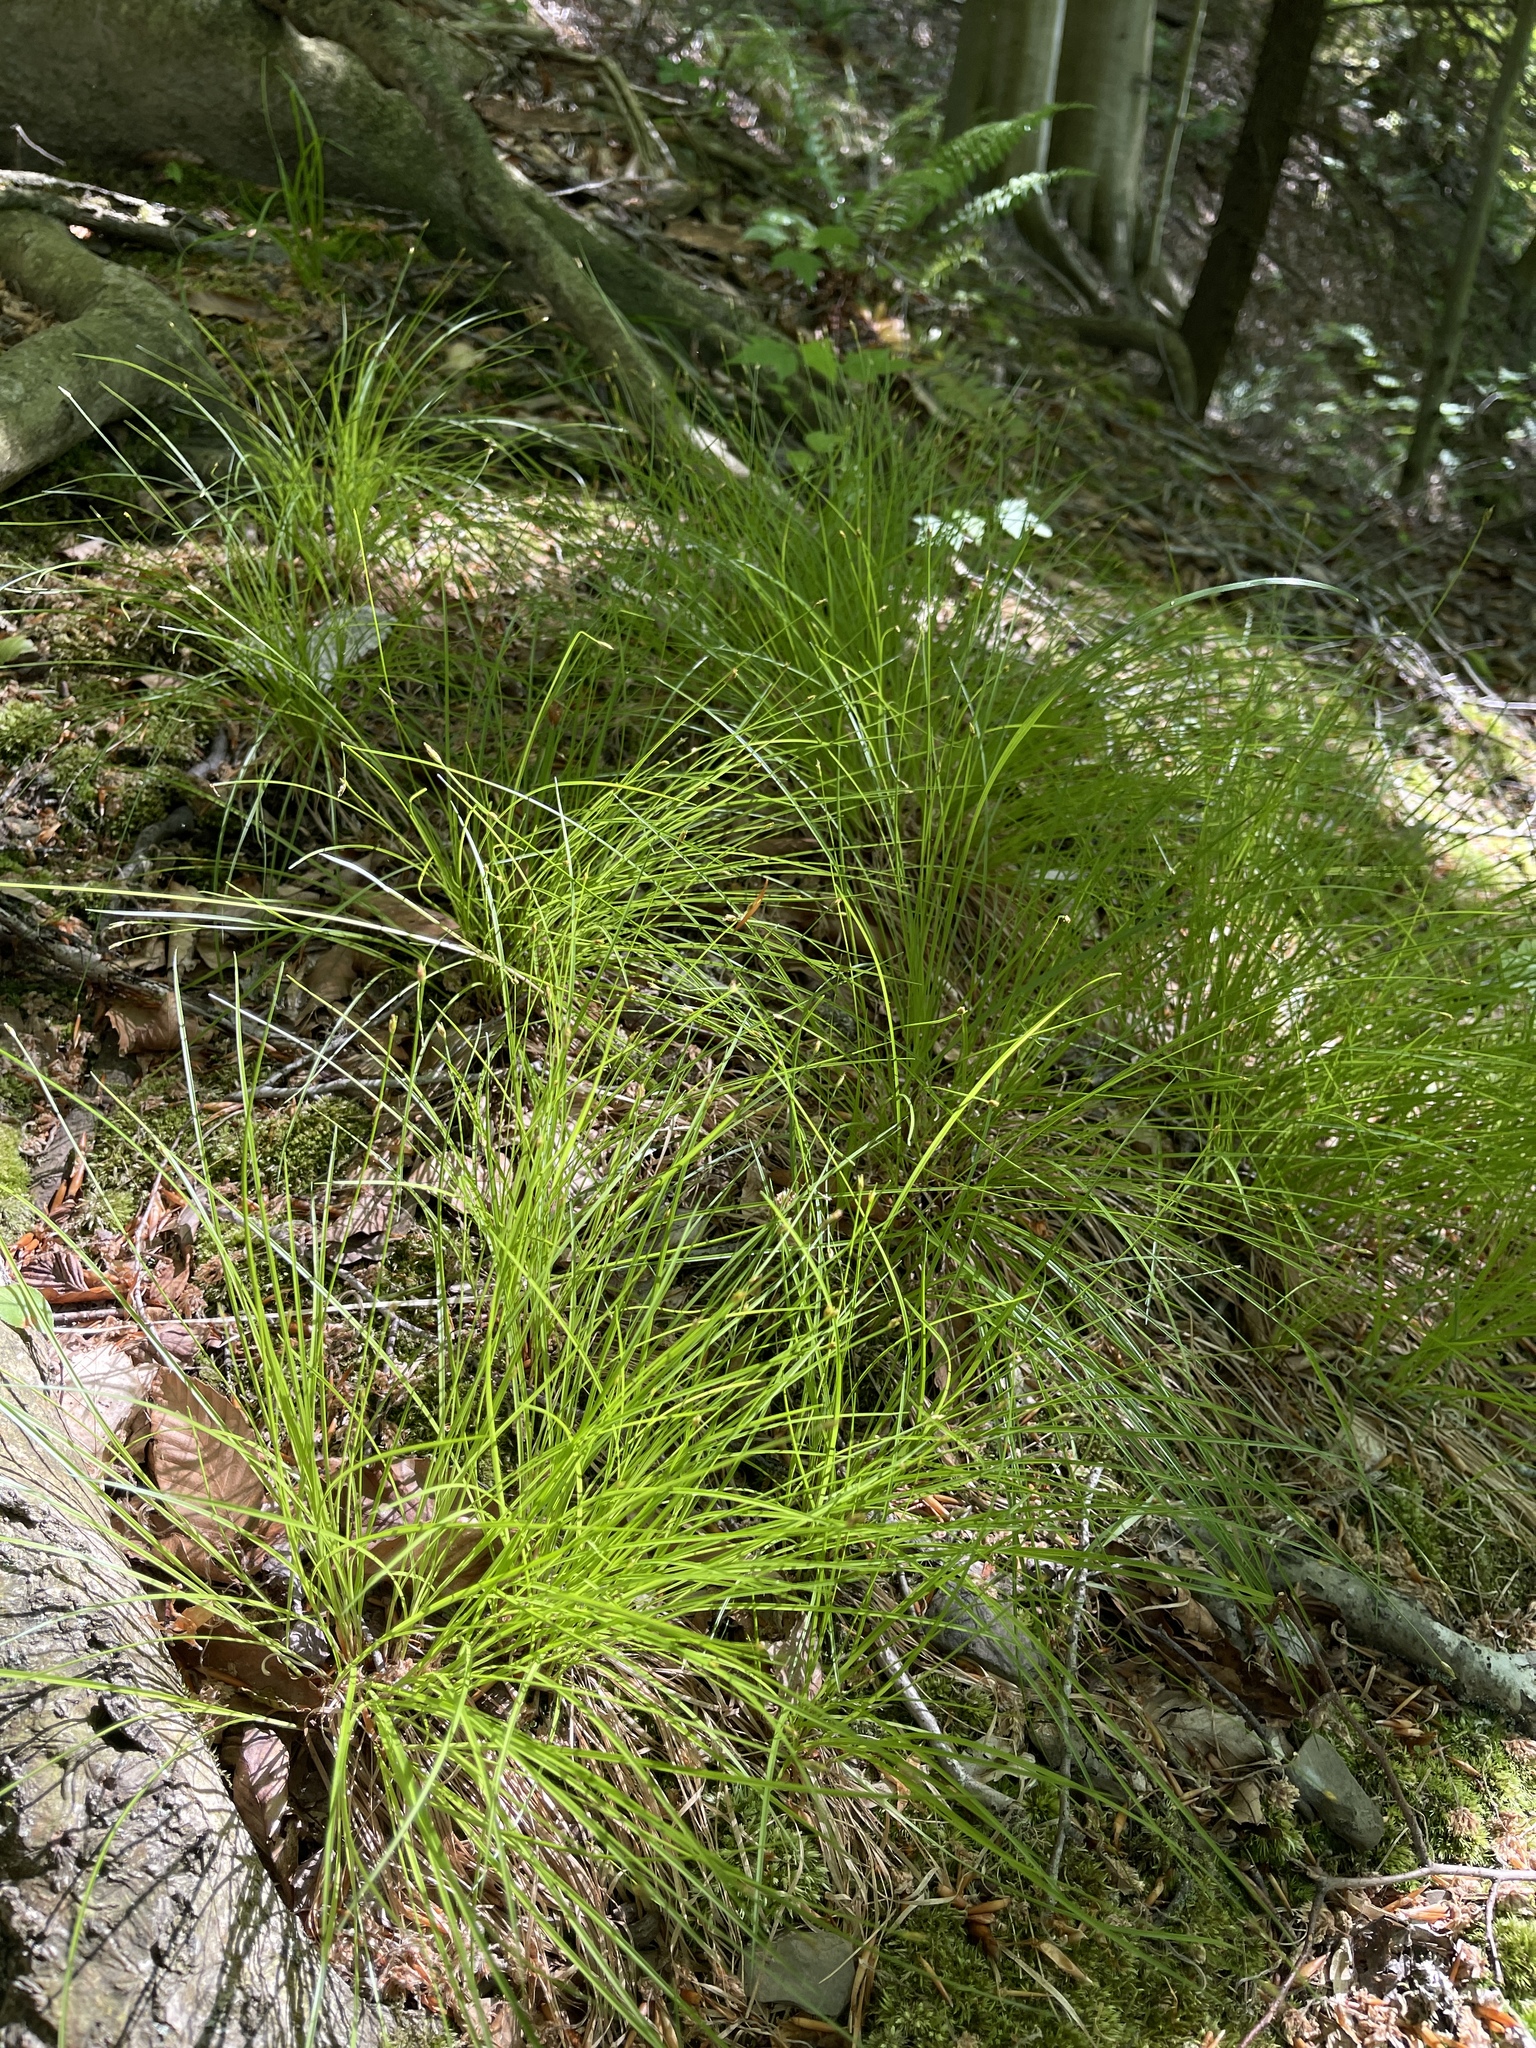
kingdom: Plantae
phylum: Tracheophyta
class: Liliopsida
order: Poales
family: Cyperaceae
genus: Trichophorum
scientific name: Trichophorum planifolium
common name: Bashful bulrush
